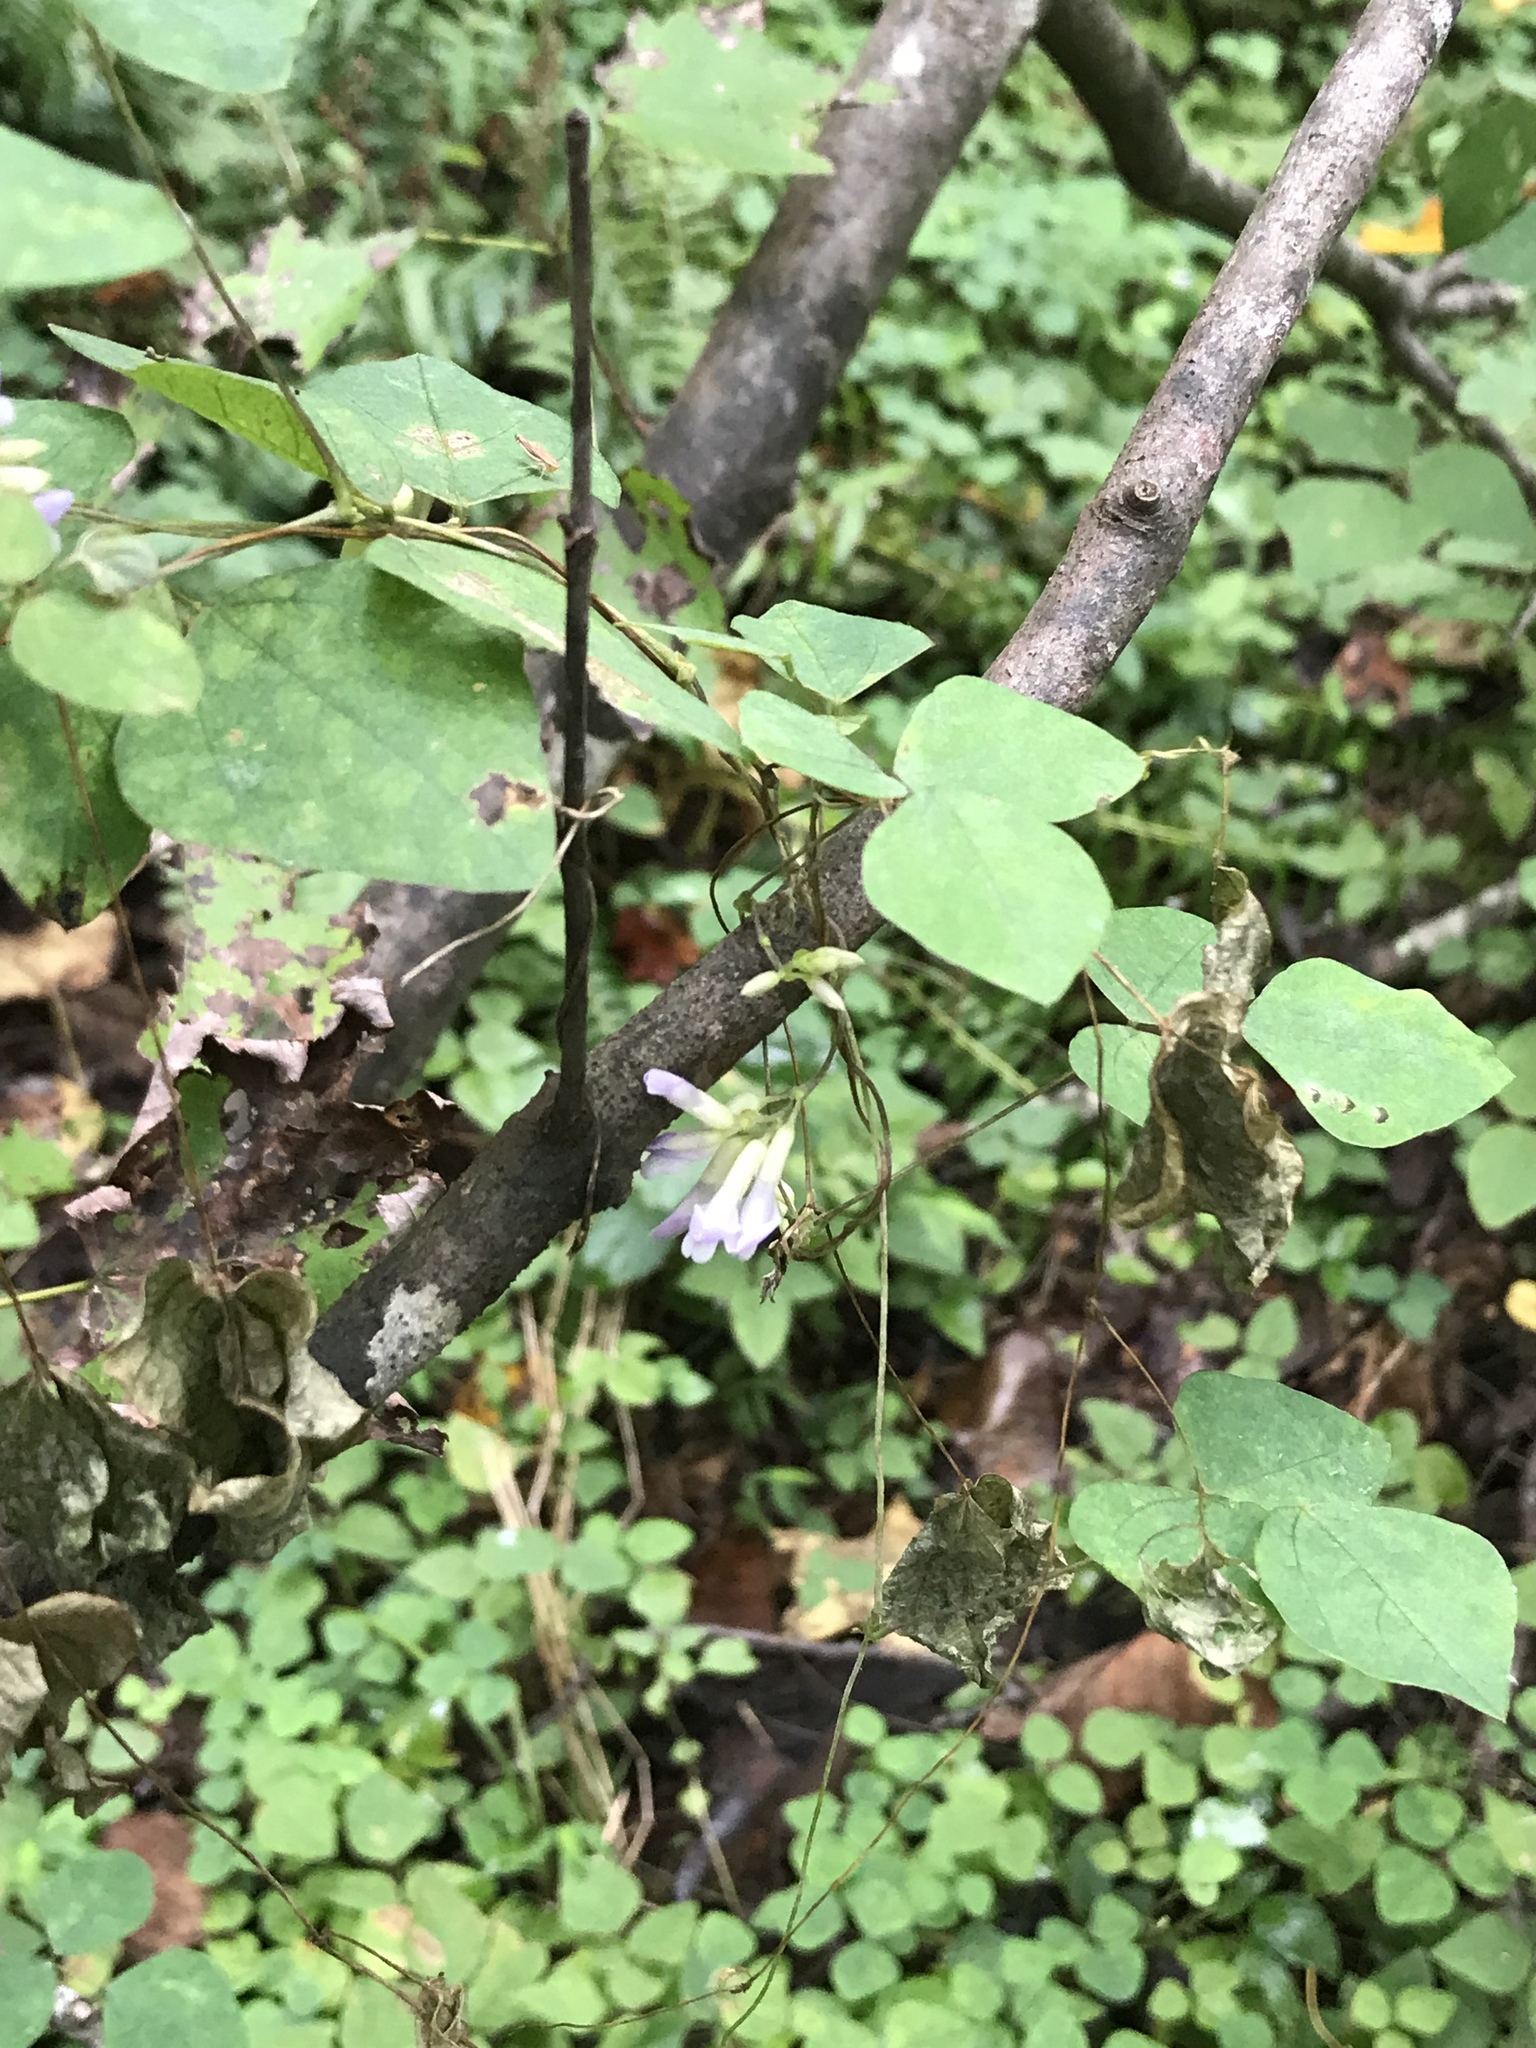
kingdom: Plantae
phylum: Tracheophyta
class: Magnoliopsida
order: Fabales
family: Fabaceae
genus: Amphicarpaea
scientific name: Amphicarpaea bracteata
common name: American hog peanut
